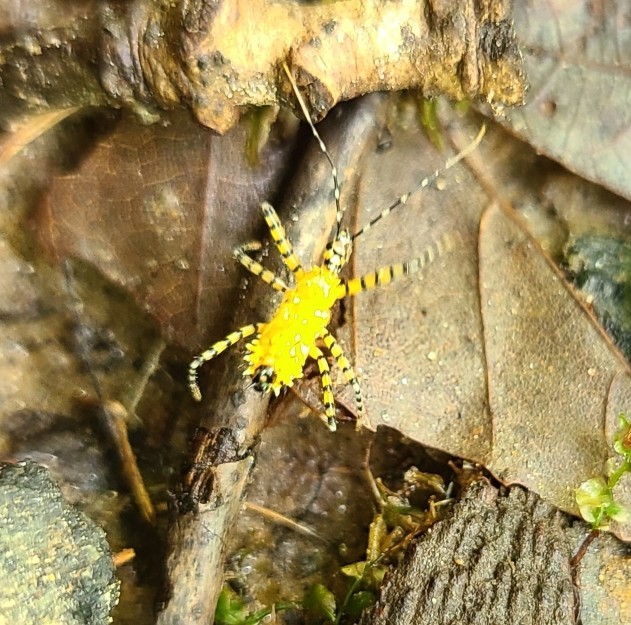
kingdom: Animalia
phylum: Arthropoda
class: Insecta
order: Hemiptera
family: Reduviidae
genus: Pselliopus
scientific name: Pselliopus barberi
